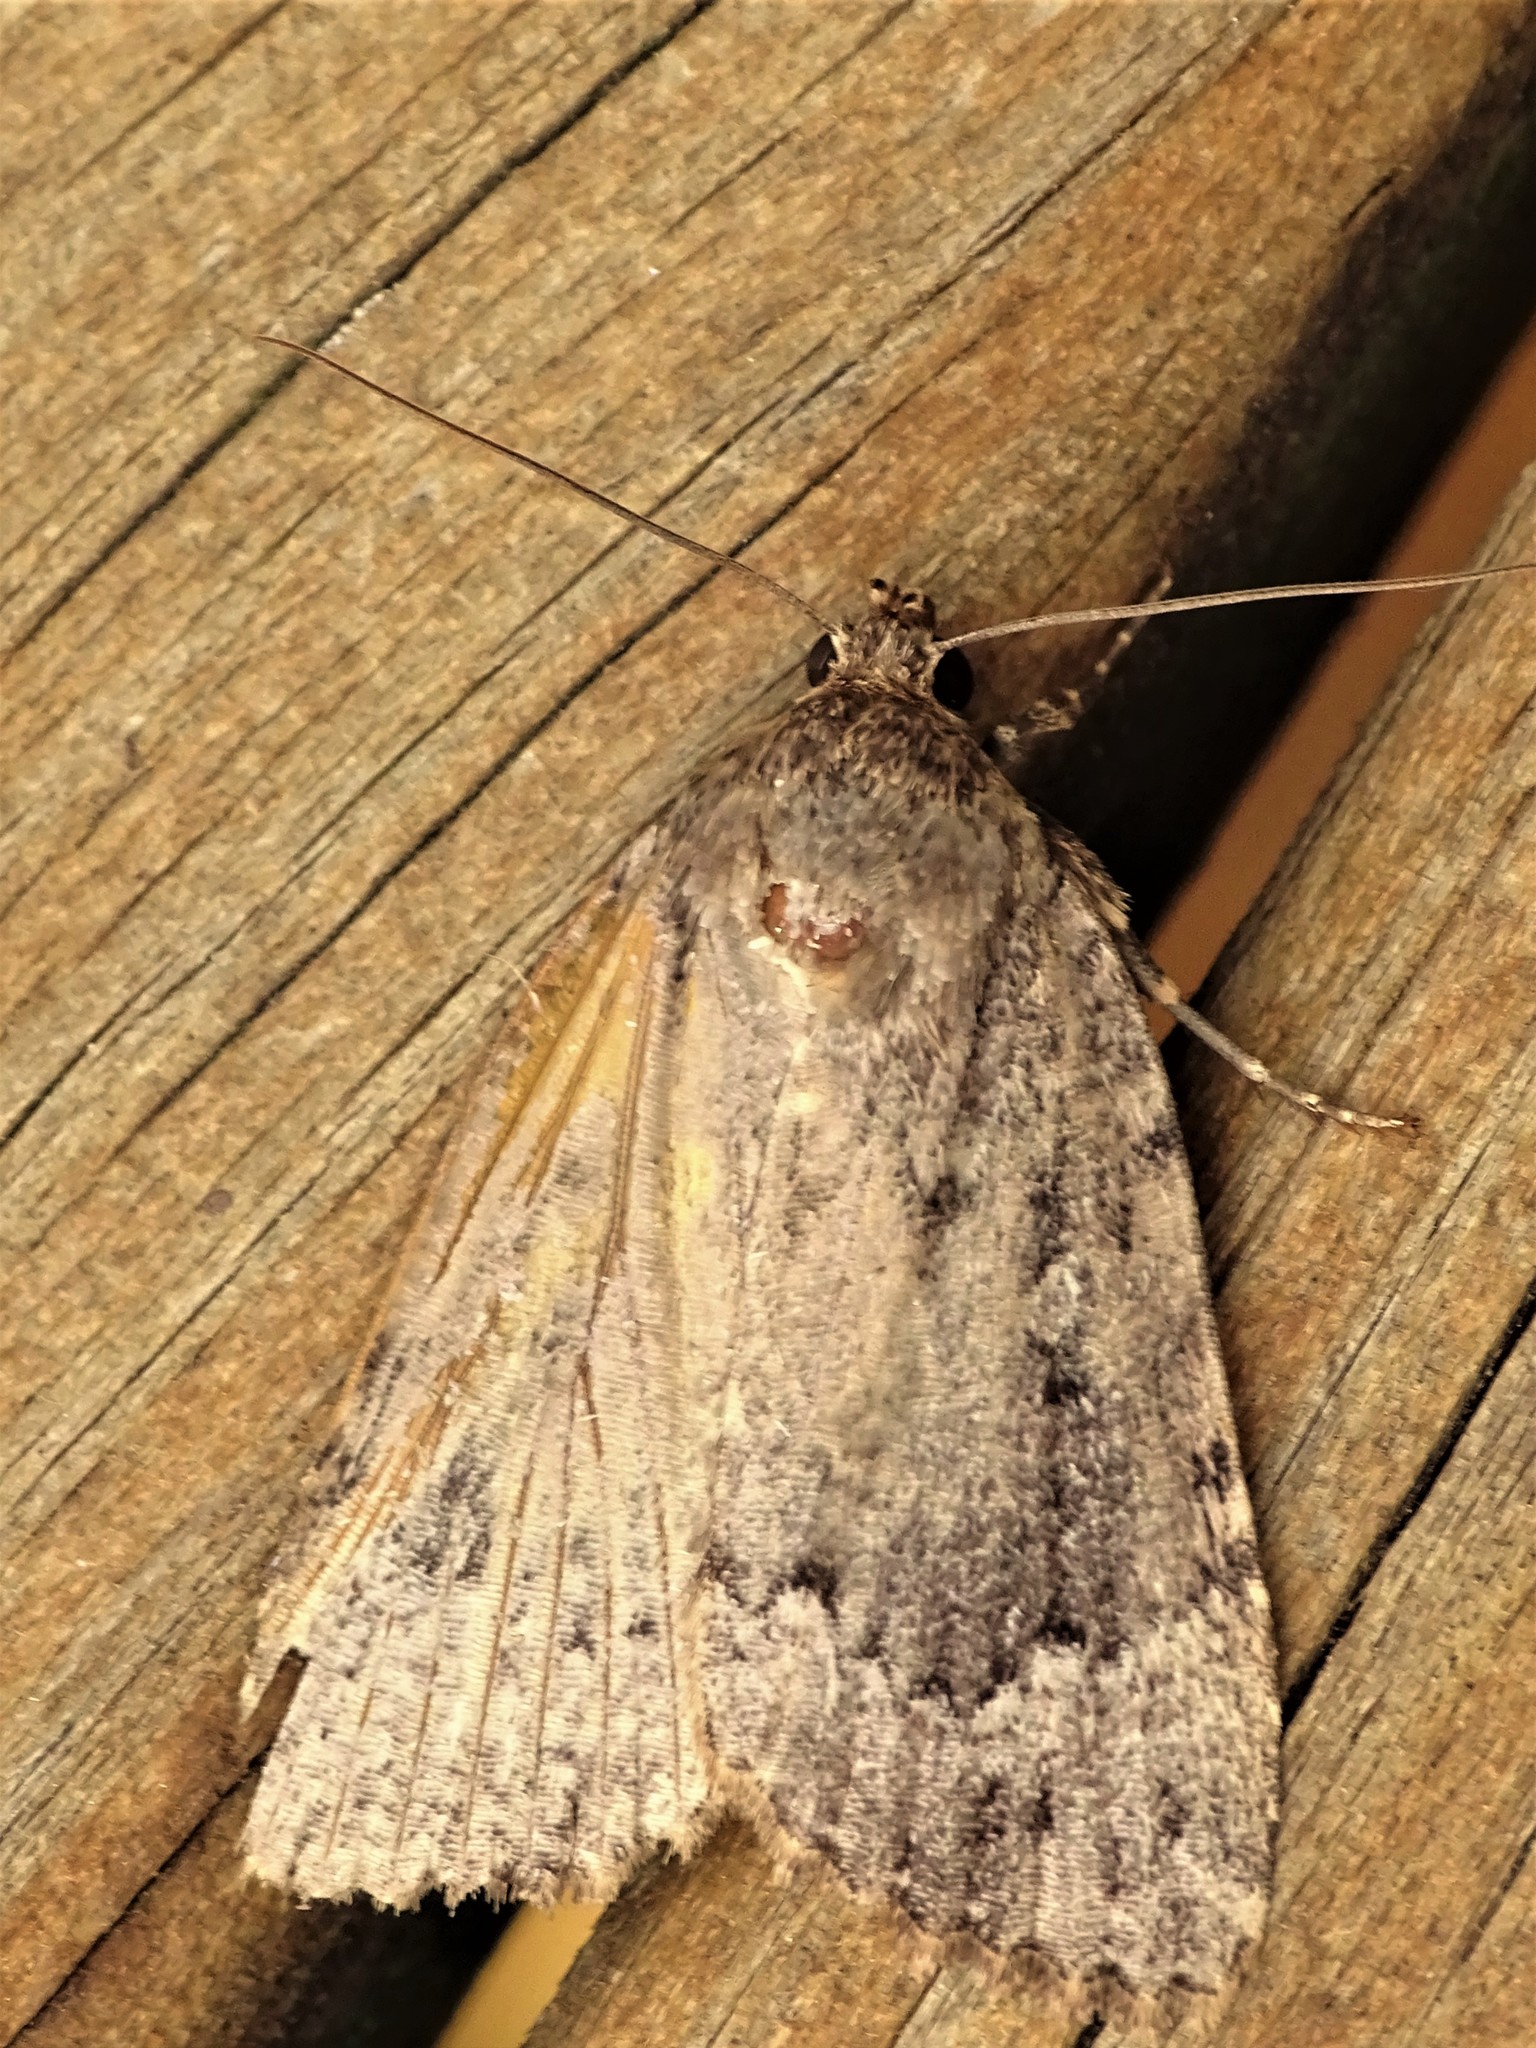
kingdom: Animalia
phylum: Arthropoda
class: Insecta
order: Lepidoptera
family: Noctuidae
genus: Amphipyra
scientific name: Amphipyra pyramidoides
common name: American copper underwing
